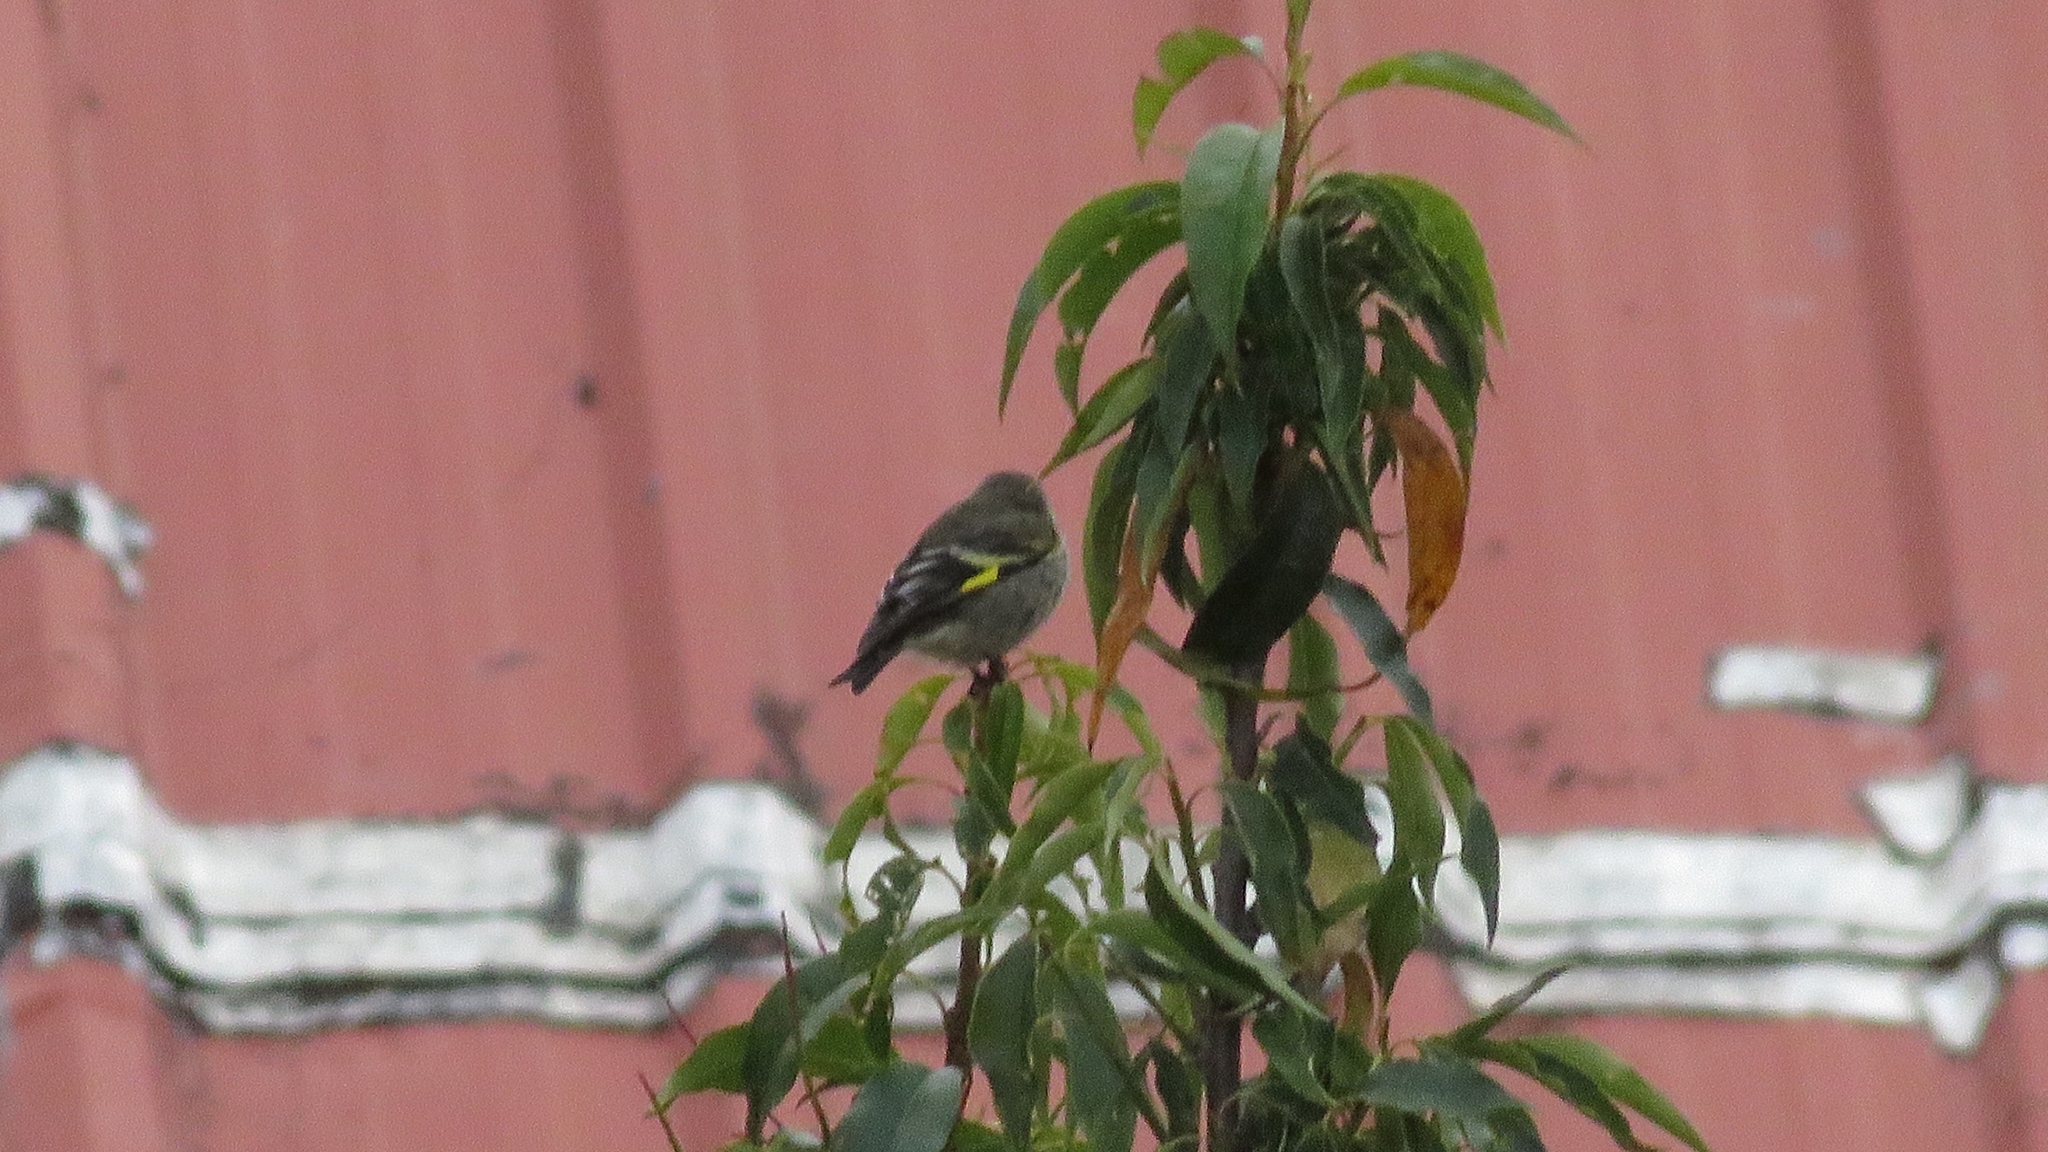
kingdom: Animalia
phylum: Chordata
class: Aves
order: Passeriformes
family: Fringillidae
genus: Spinus
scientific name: Spinus magellanicus
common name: Hooded siskin
